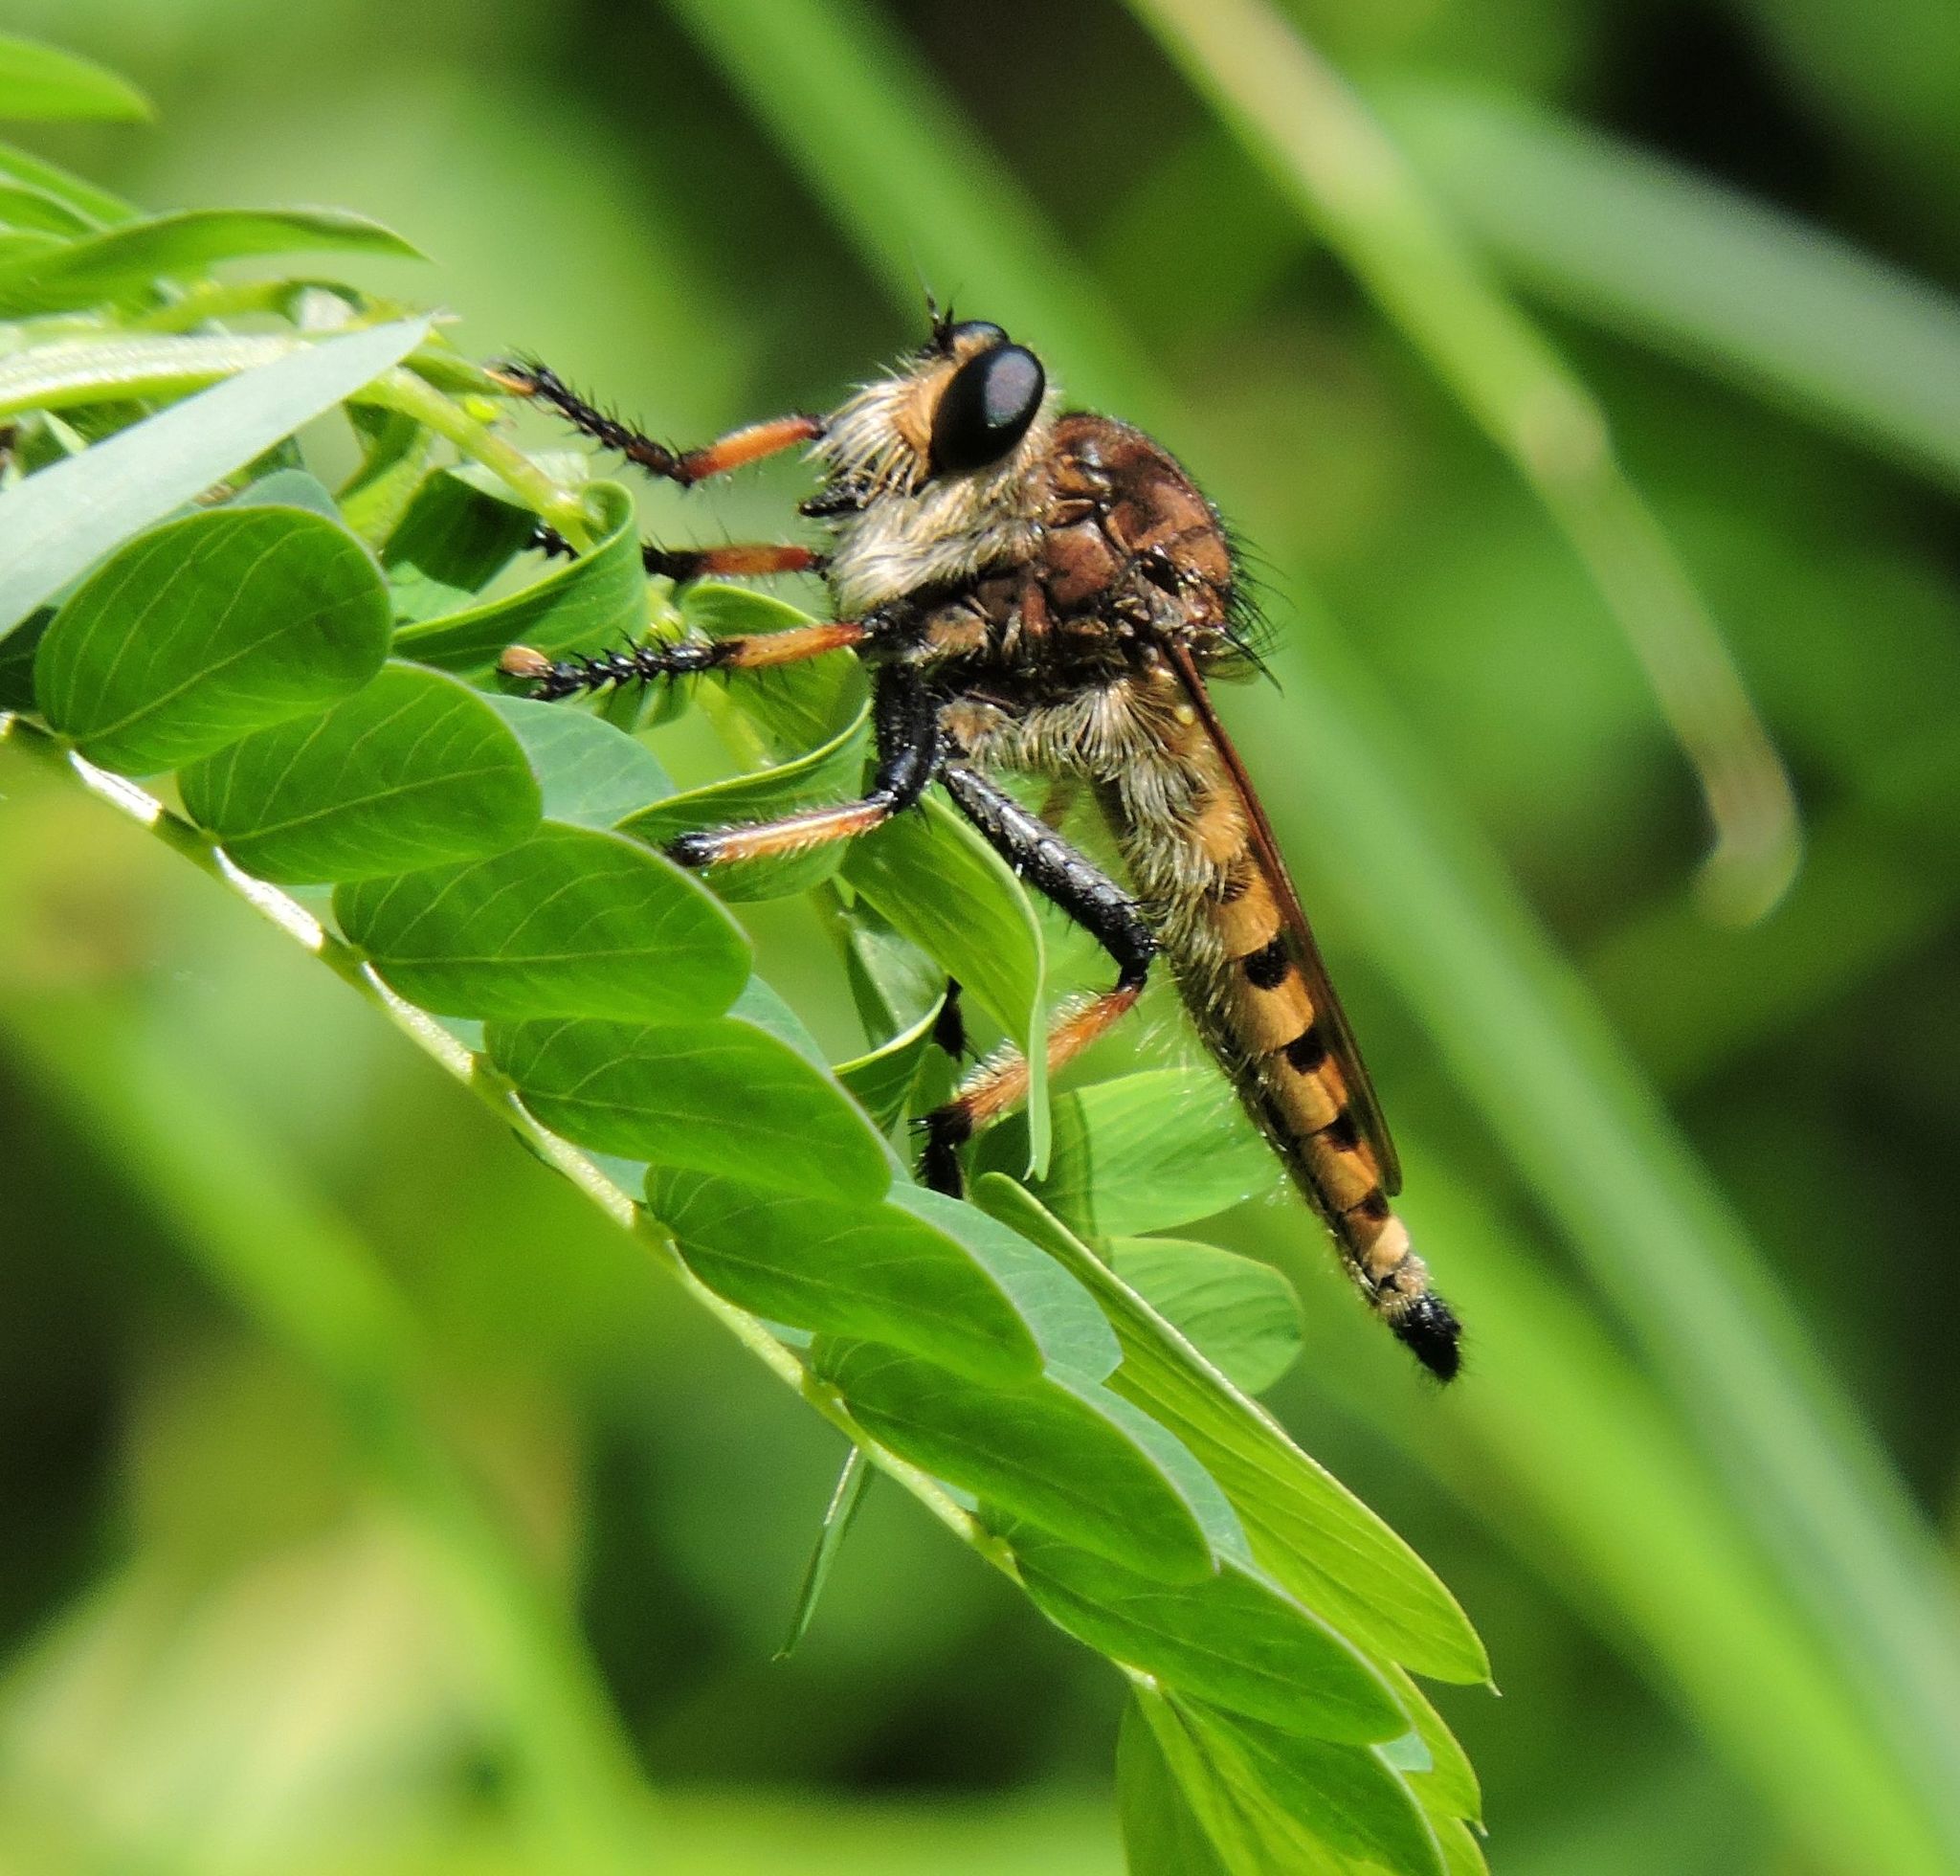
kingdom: Animalia
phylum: Arthropoda
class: Insecta
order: Diptera
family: Asilidae
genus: Promachus
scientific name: Promachus rufipes
